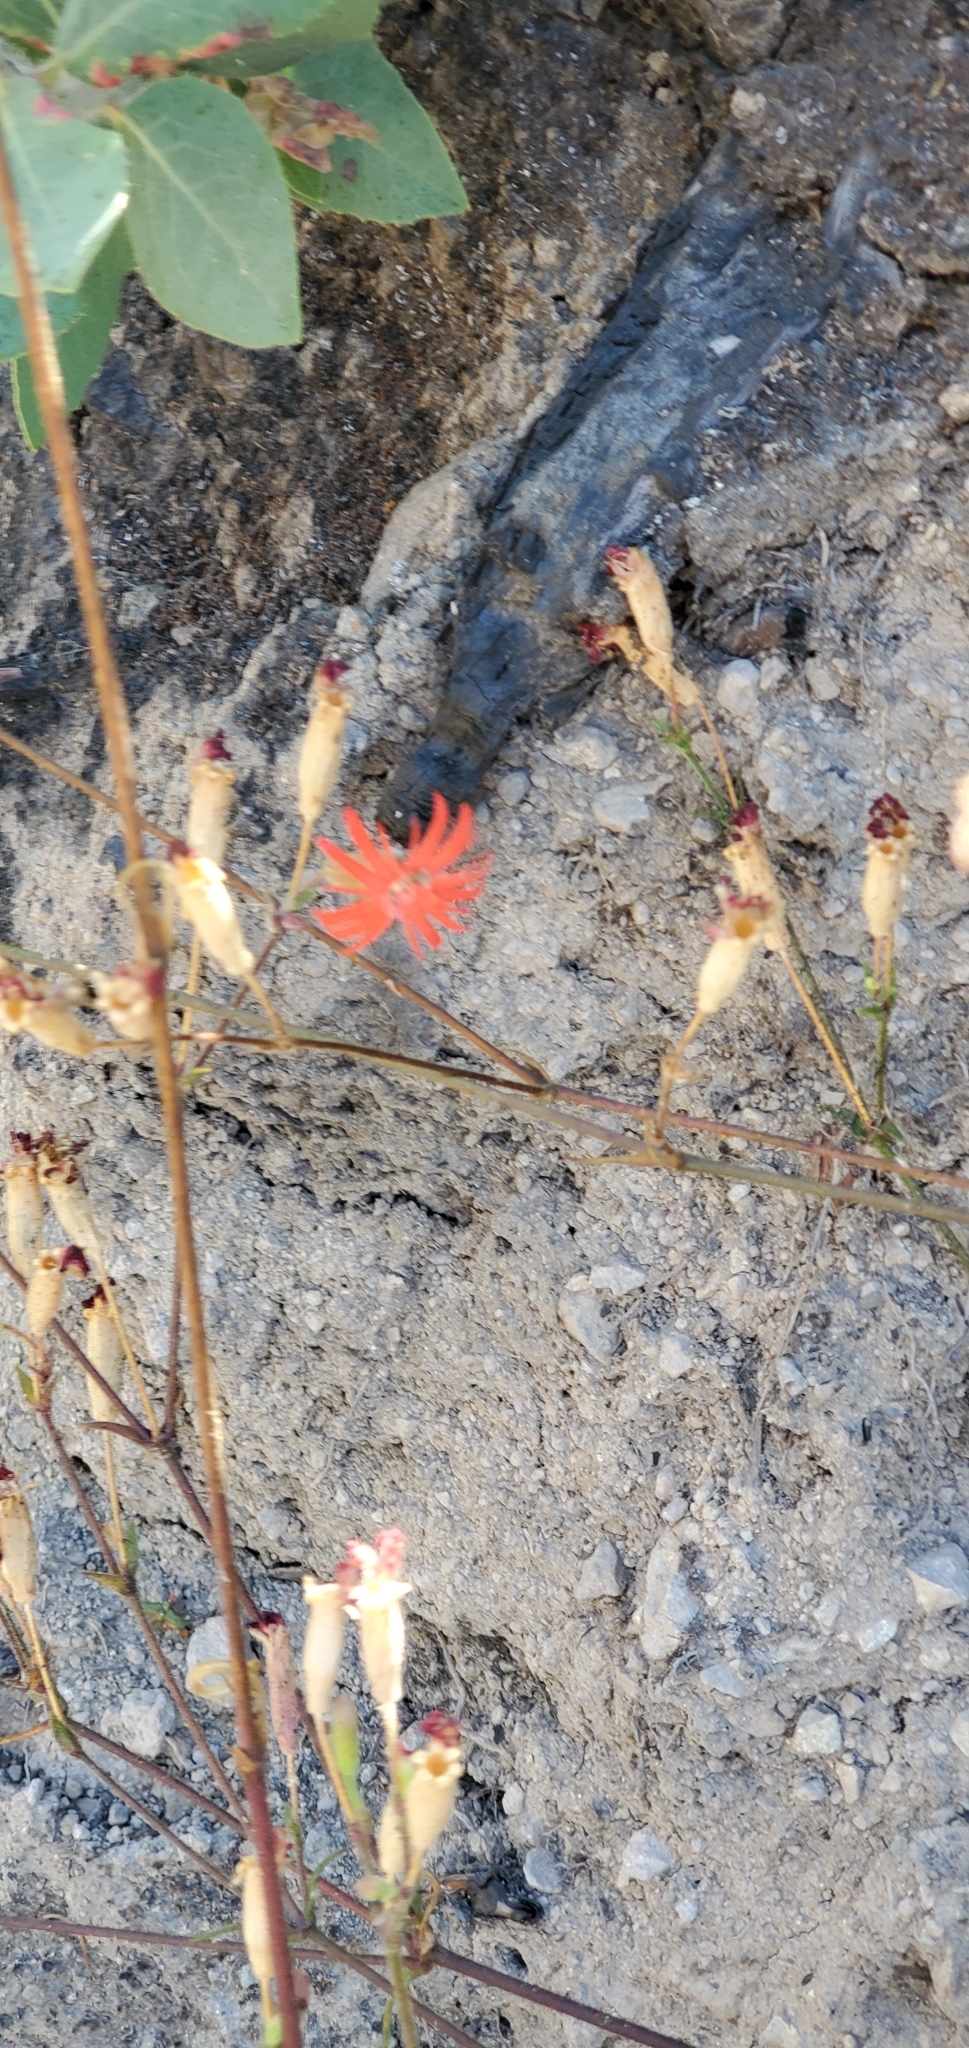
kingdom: Plantae
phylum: Tracheophyta
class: Magnoliopsida
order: Caryophyllales
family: Caryophyllaceae
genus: Silene
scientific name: Silene laciniata
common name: Indian-pink
